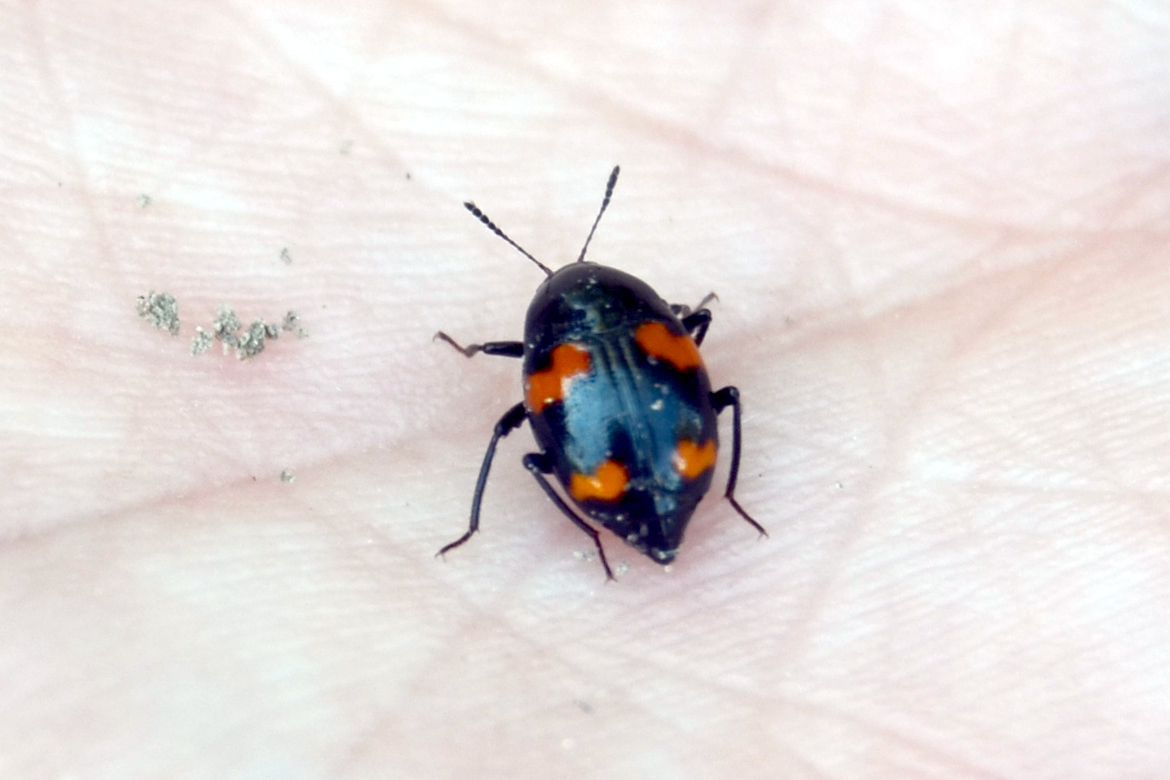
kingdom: Animalia
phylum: Arthropoda
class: Insecta
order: Coleoptera
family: Staphylinidae
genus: Scaphidium
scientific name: Scaphidium quadrimaculatum
